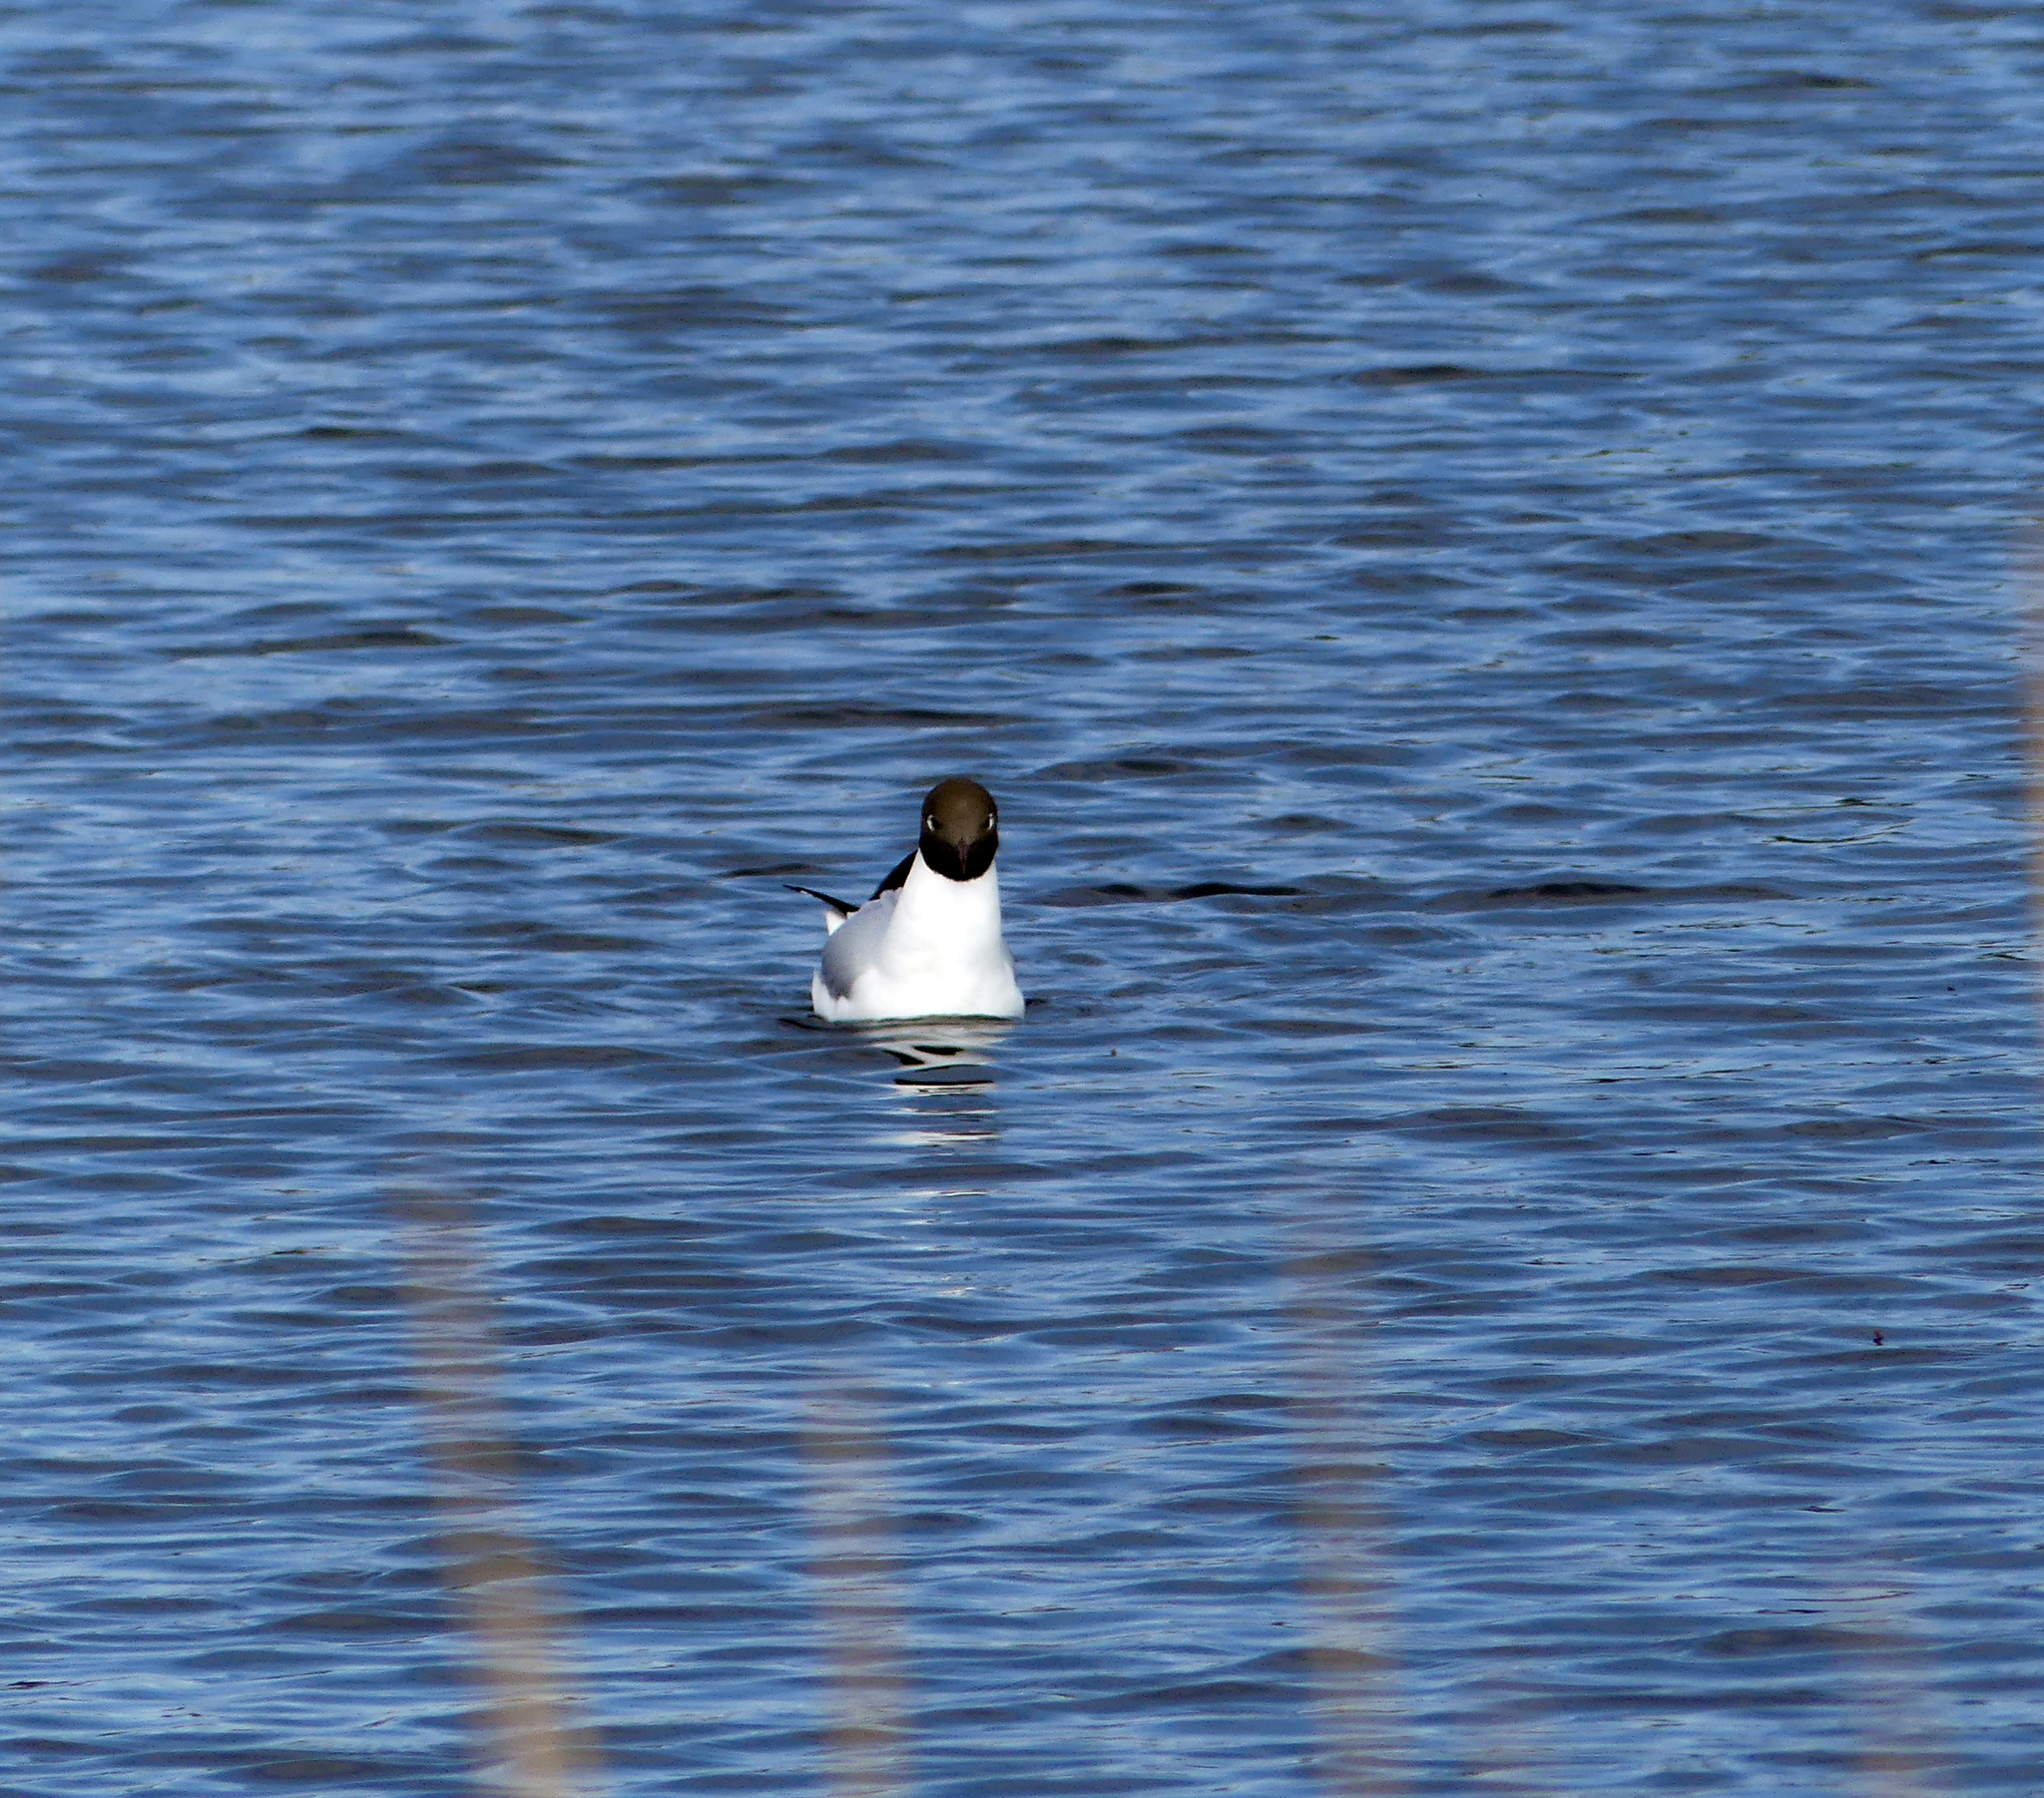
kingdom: Animalia
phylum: Chordata
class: Aves
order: Charadriiformes
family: Laridae
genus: Chroicocephalus
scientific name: Chroicocephalus ridibundus
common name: Black-headed gull
